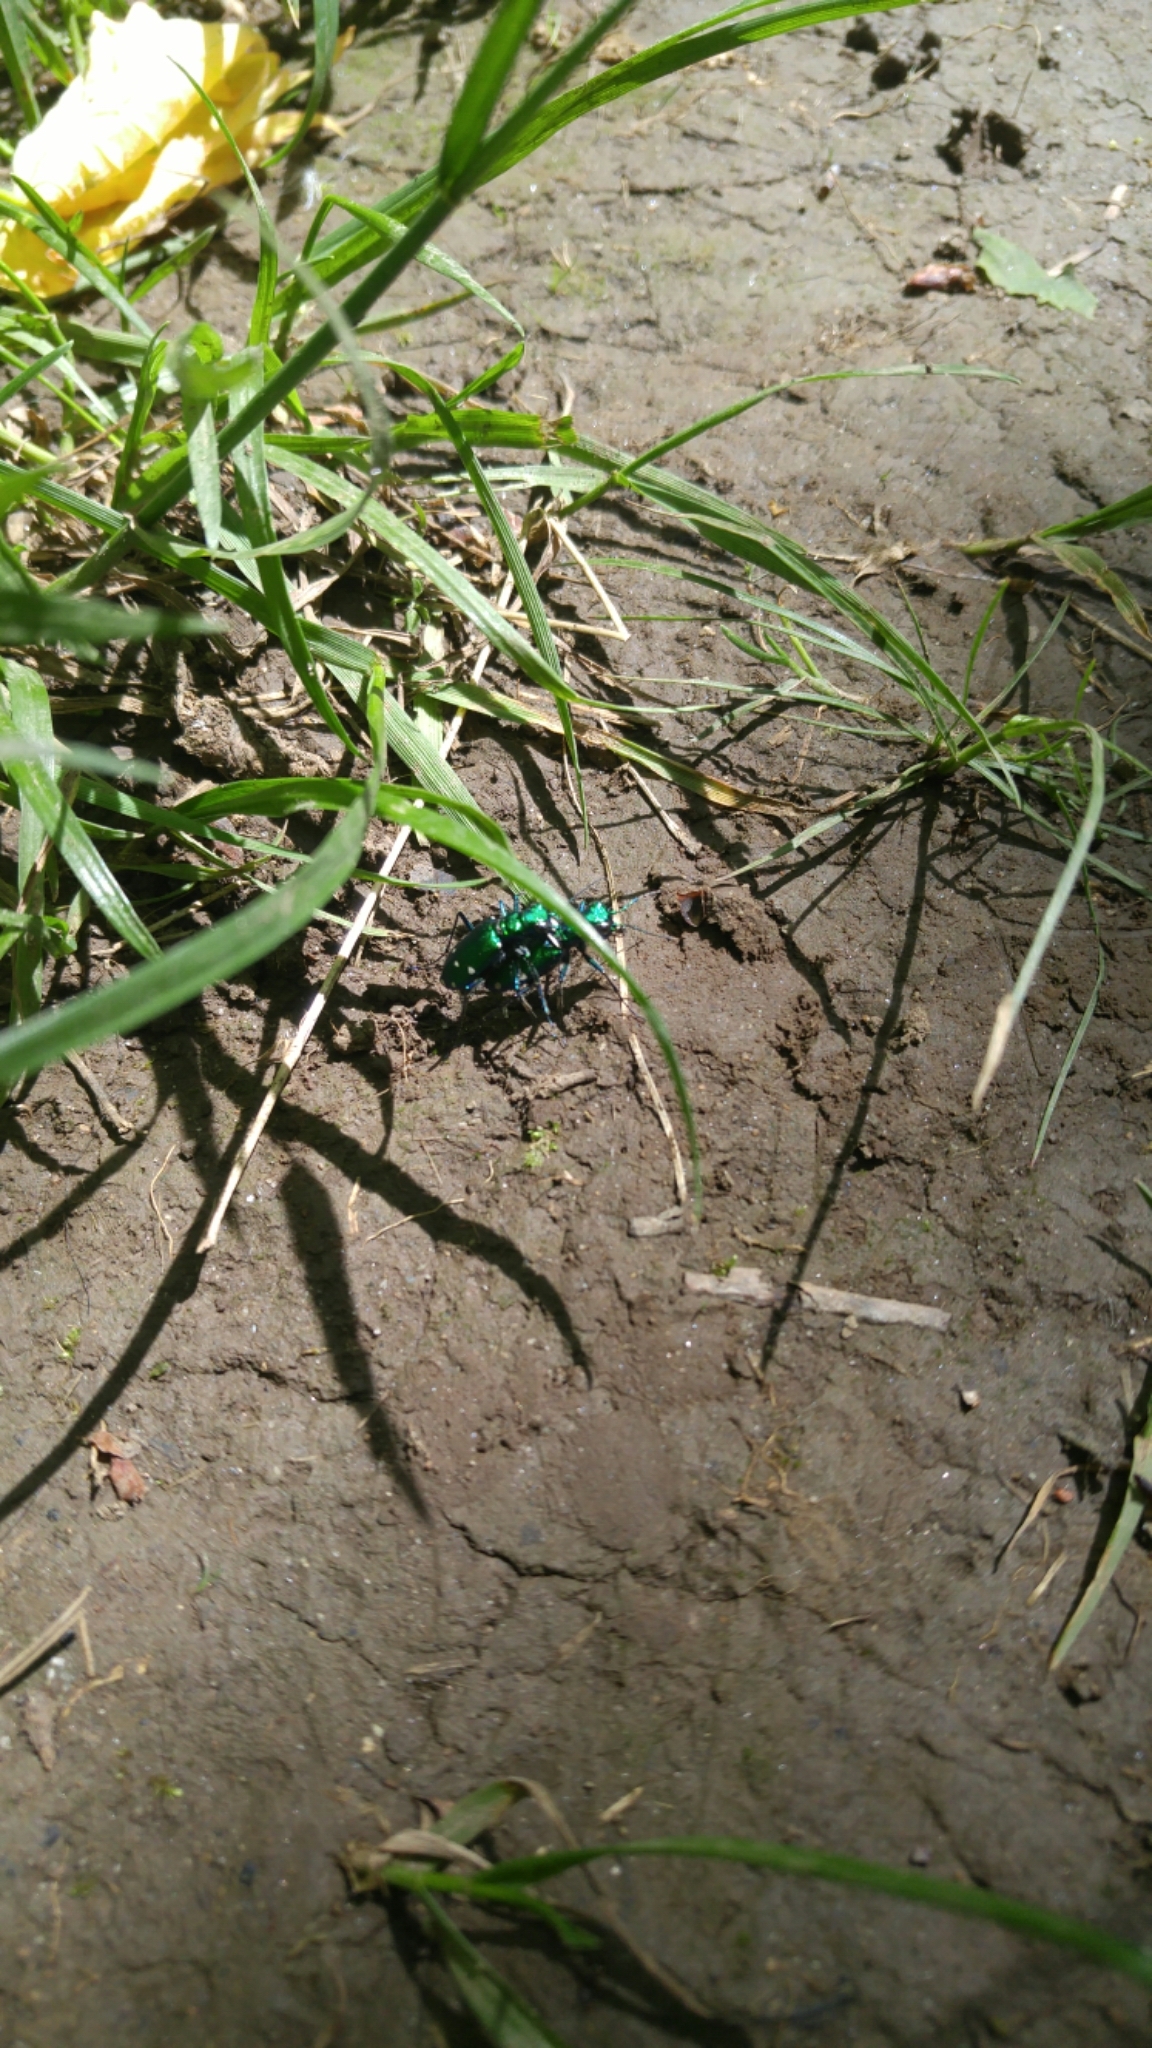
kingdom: Animalia
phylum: Arthropoda
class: Insecta
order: Coleoptera
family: Carabidae
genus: Cicindela
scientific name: Cicindela sexguttata
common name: Six-spotted tiger beetle
